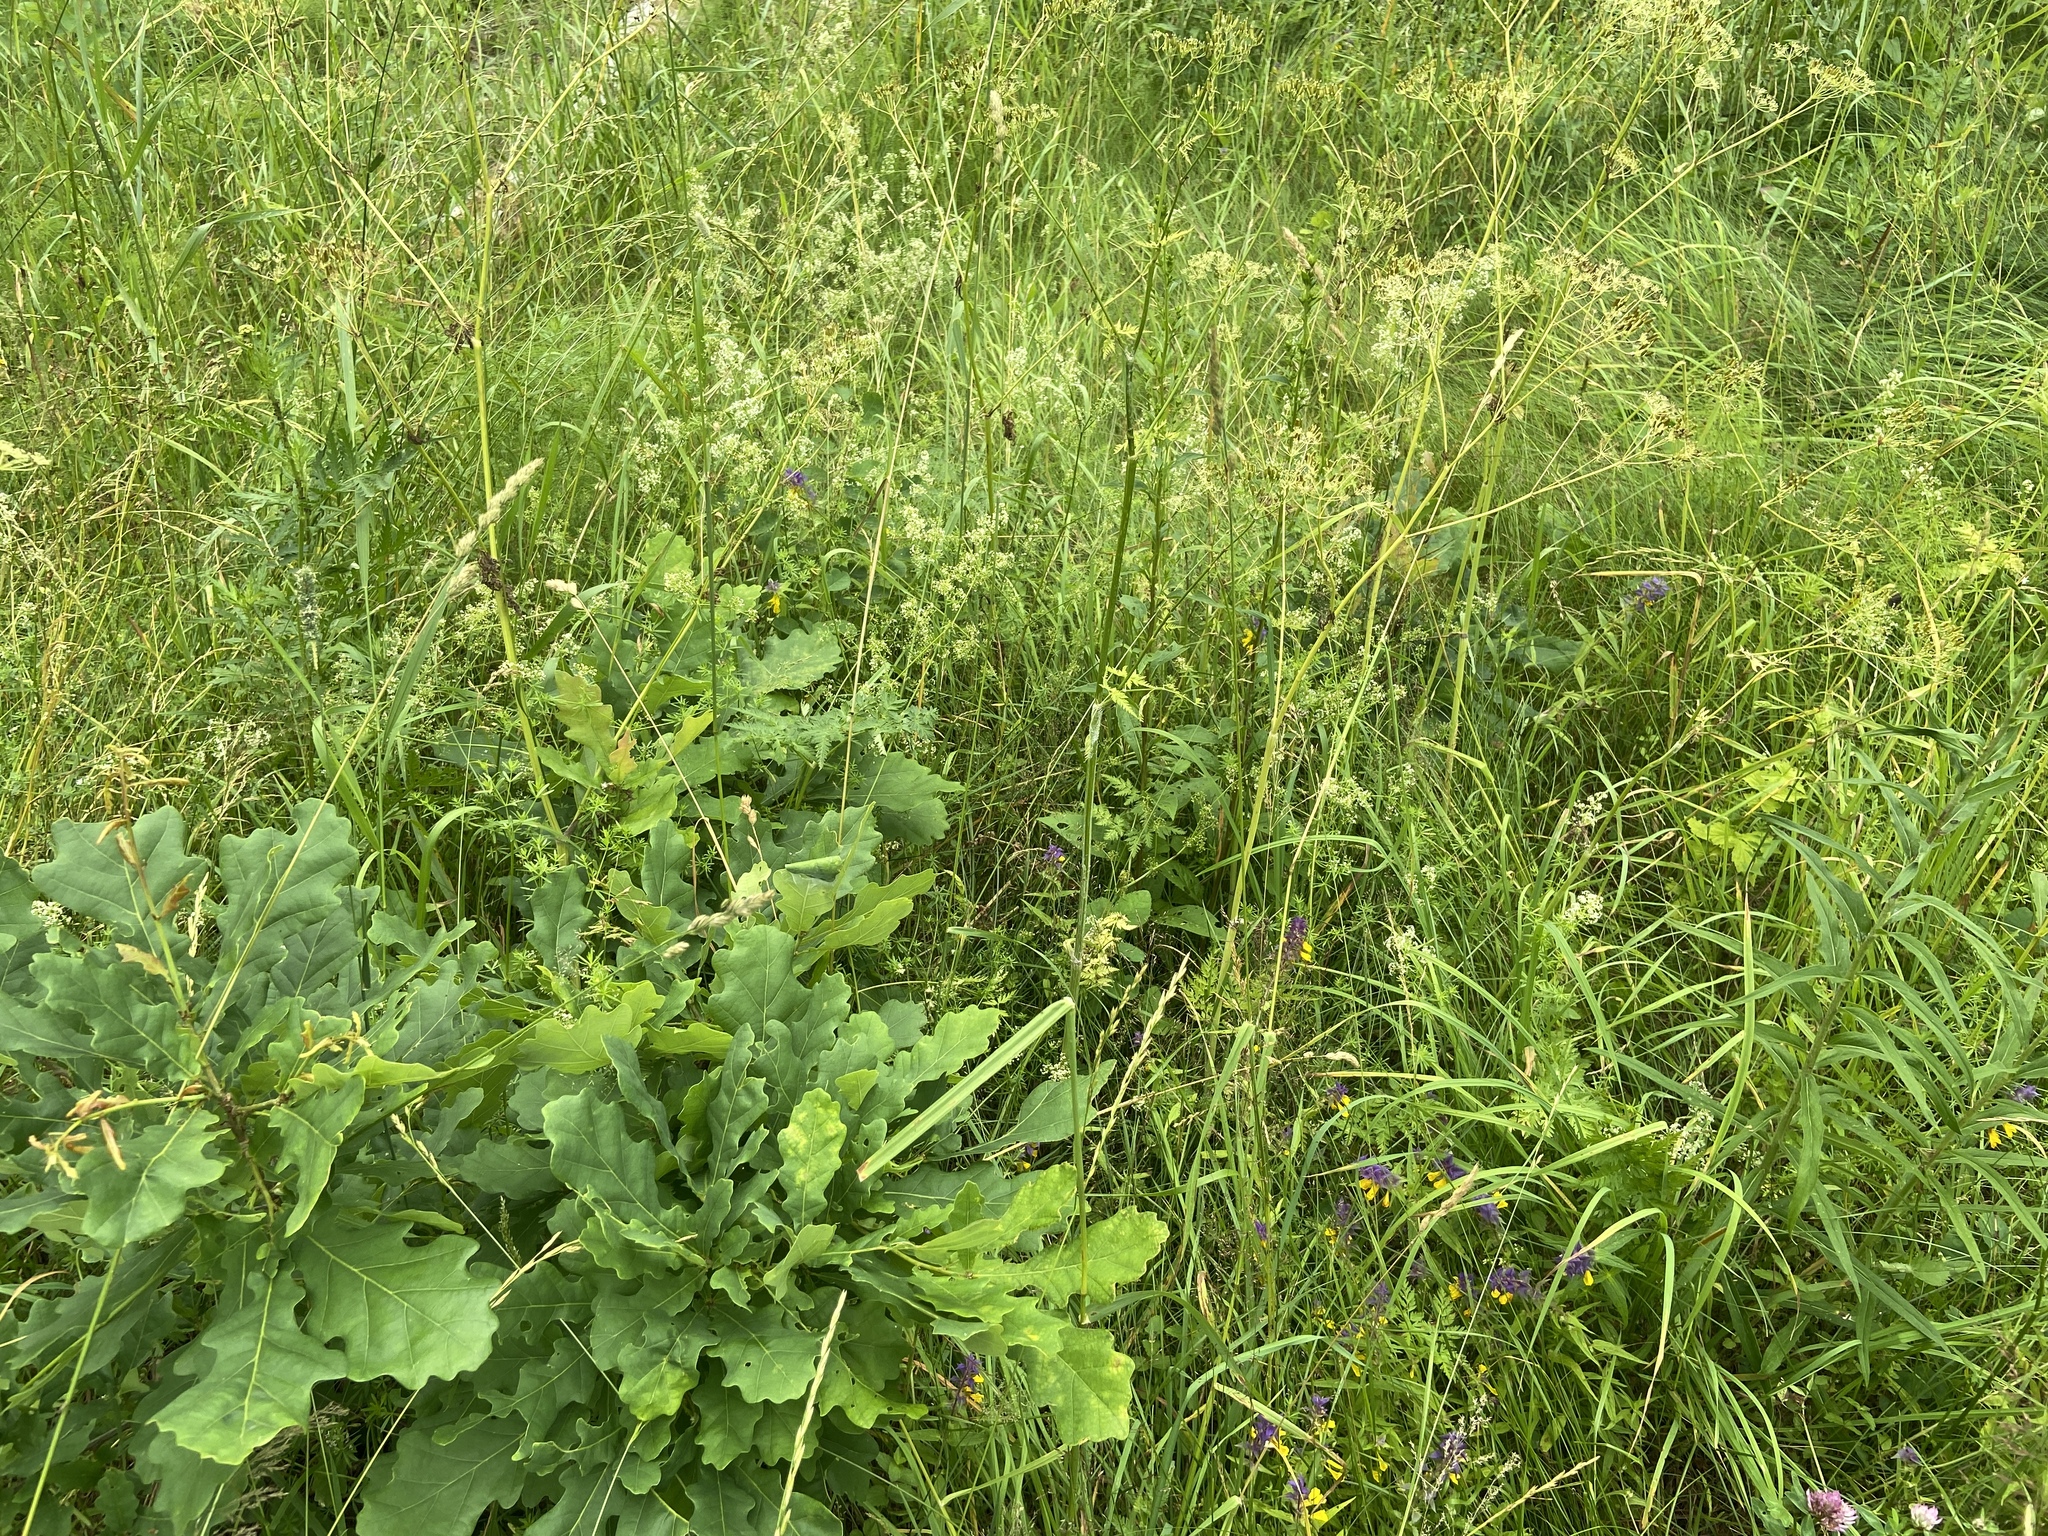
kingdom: Plantae
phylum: Tracheophyta
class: Magnoliopsida
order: Fagales
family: Fagaceae
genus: Quercus
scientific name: Quercus robur
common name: Pedunculate oak
